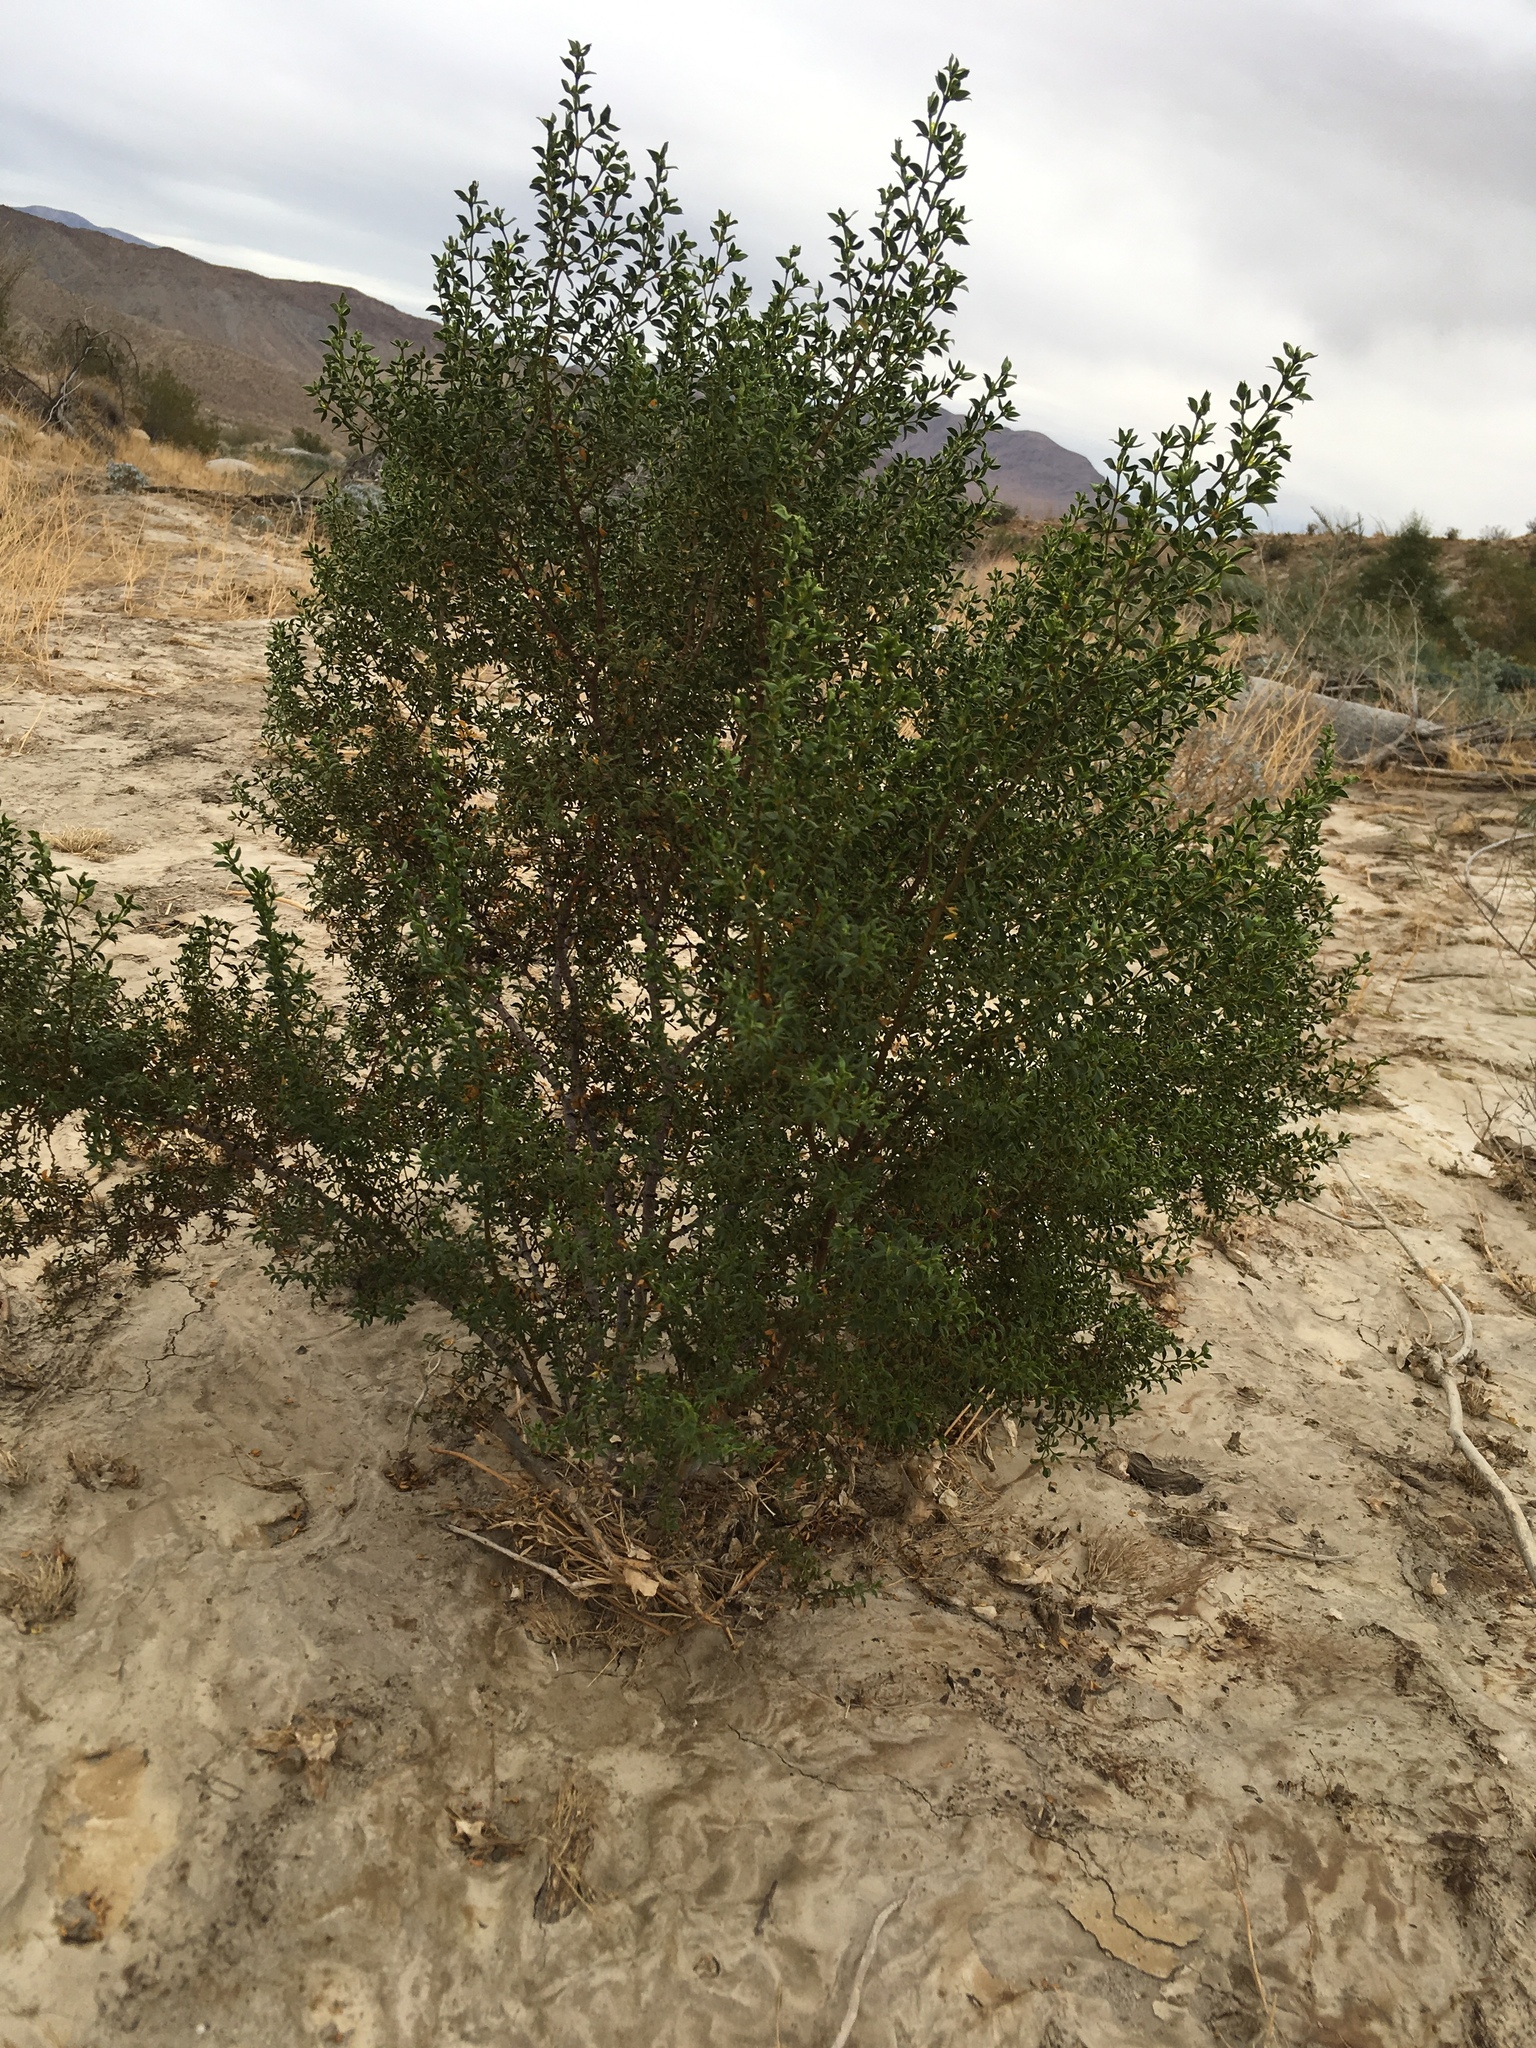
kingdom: Animalia
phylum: Arthropoda
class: Insecta
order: Diptera
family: Cecidomyiidae
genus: Asphondylia
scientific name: Asphondylia auripila
